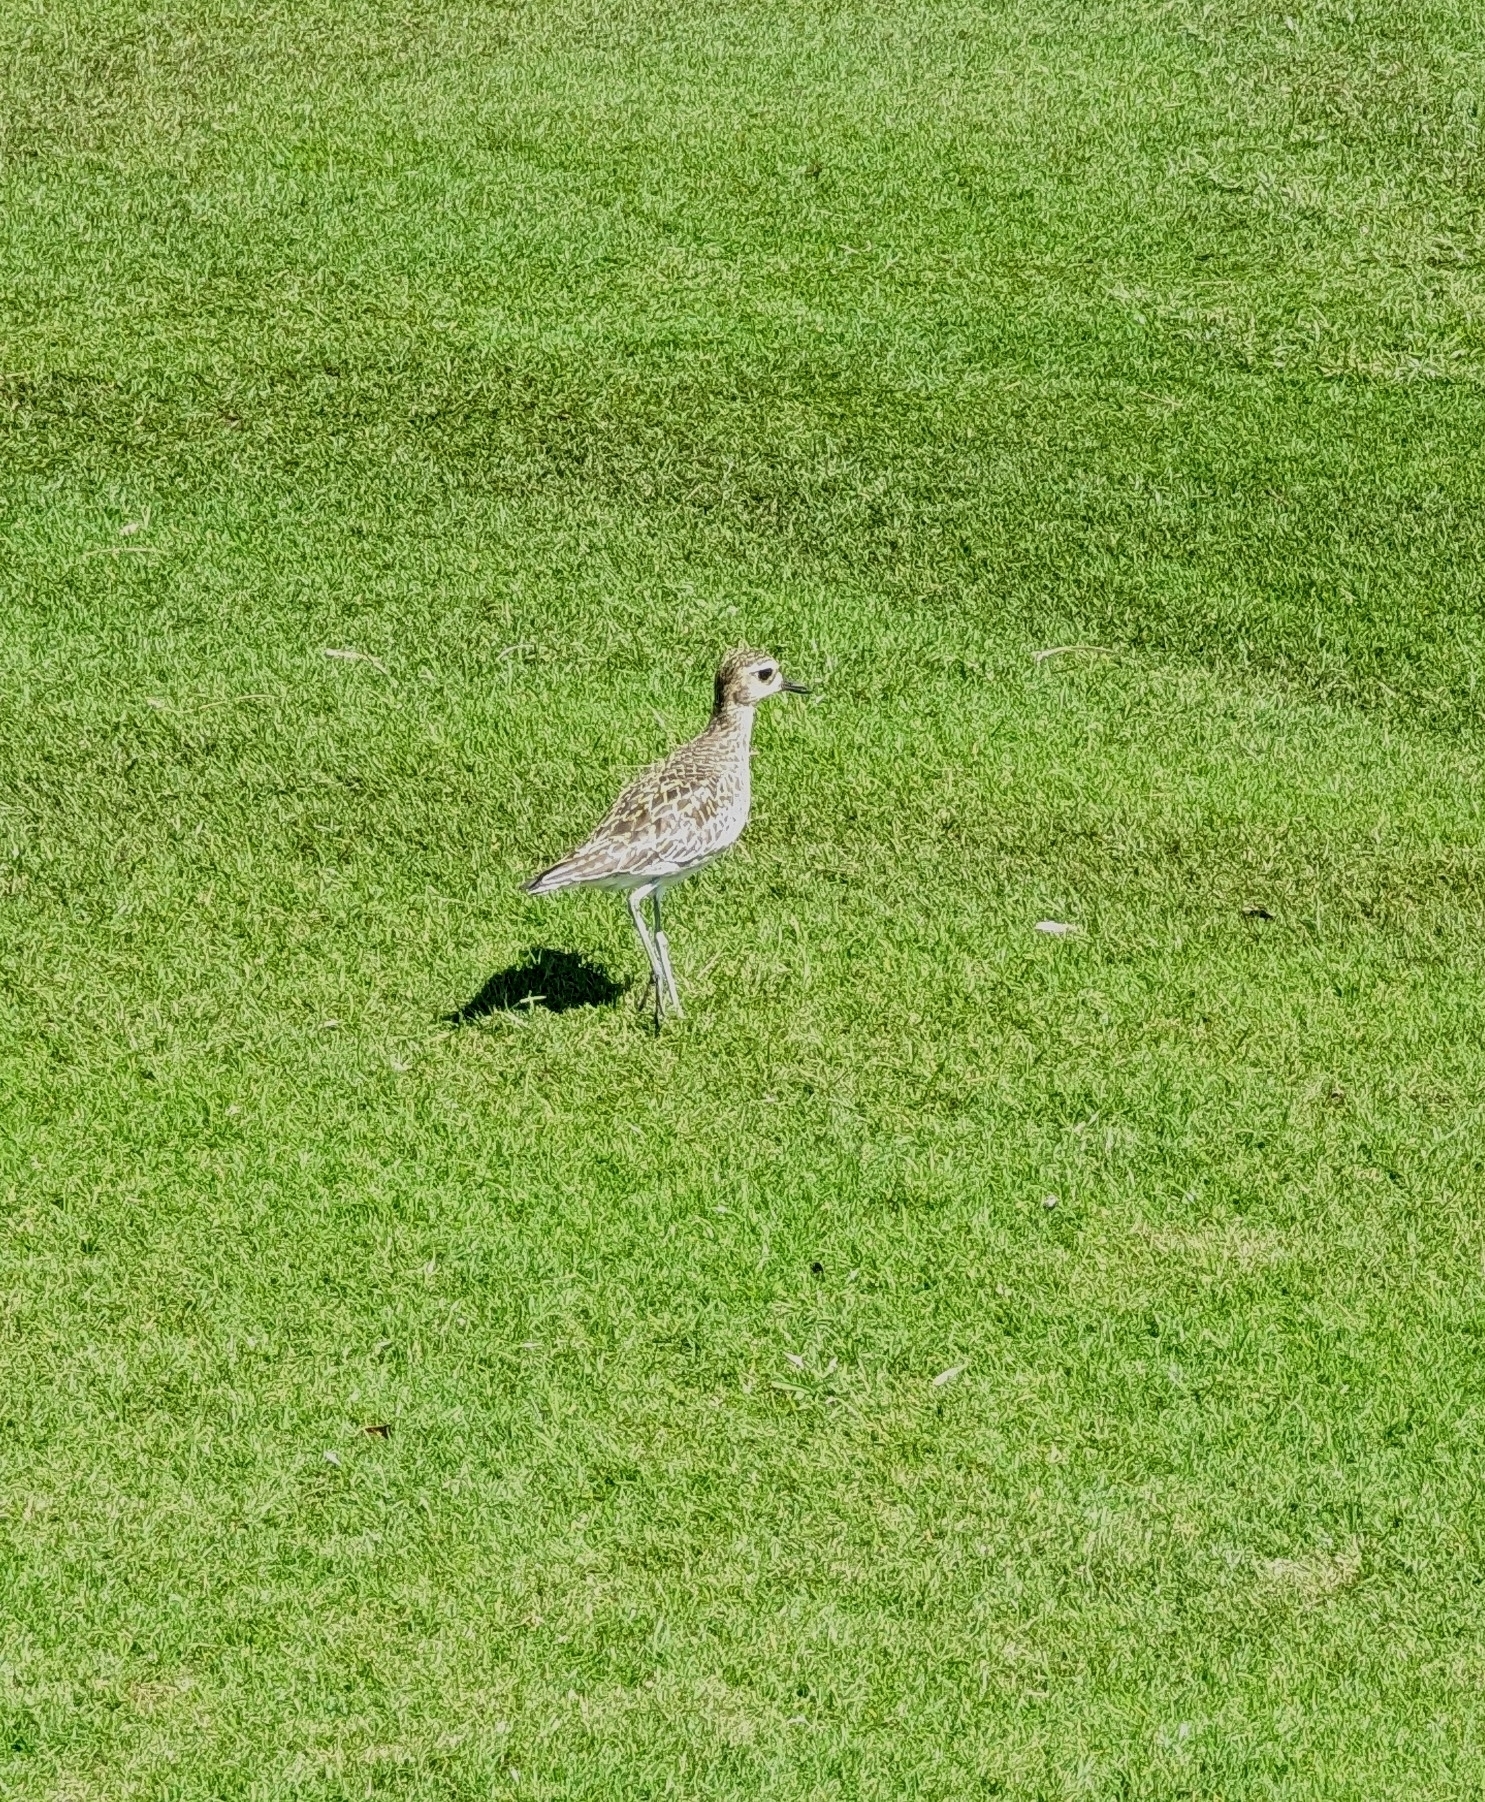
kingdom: Animalia
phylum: Chordata
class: Aves
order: Charadriiformes
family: Charadriidae
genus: Pluvialis
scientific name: Pluvialis fulva
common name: Pacific golden plover
